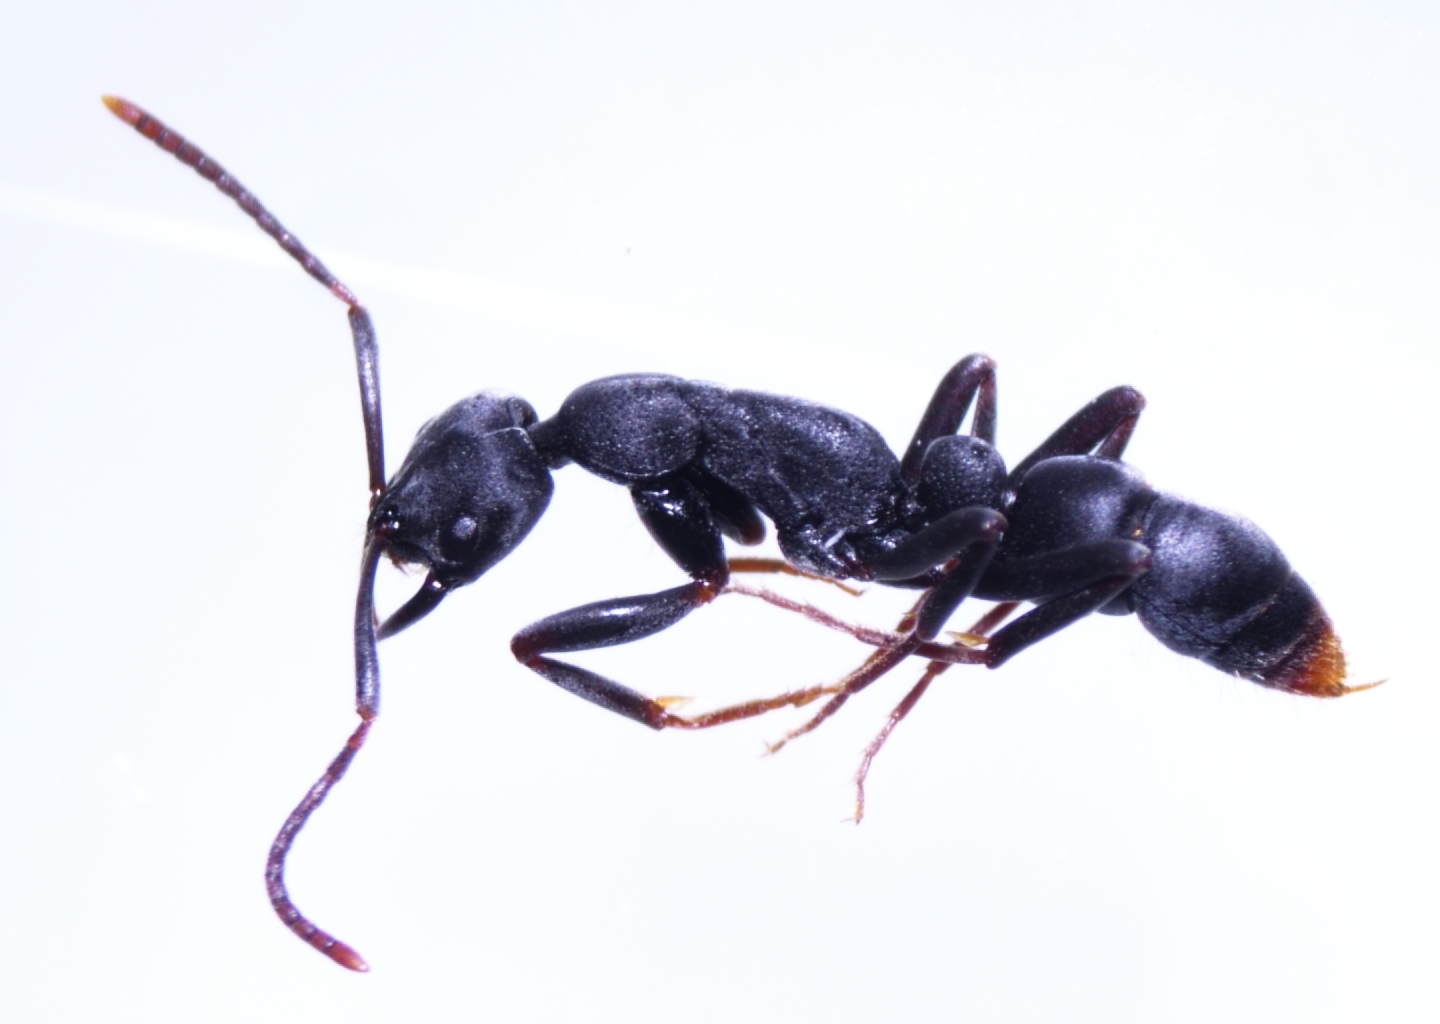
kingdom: Animalia
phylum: Arthropoda
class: Insecta
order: Hymenoptera
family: Formicidae
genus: Leptogenys
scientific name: Leptogenys falcigera
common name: Ant
